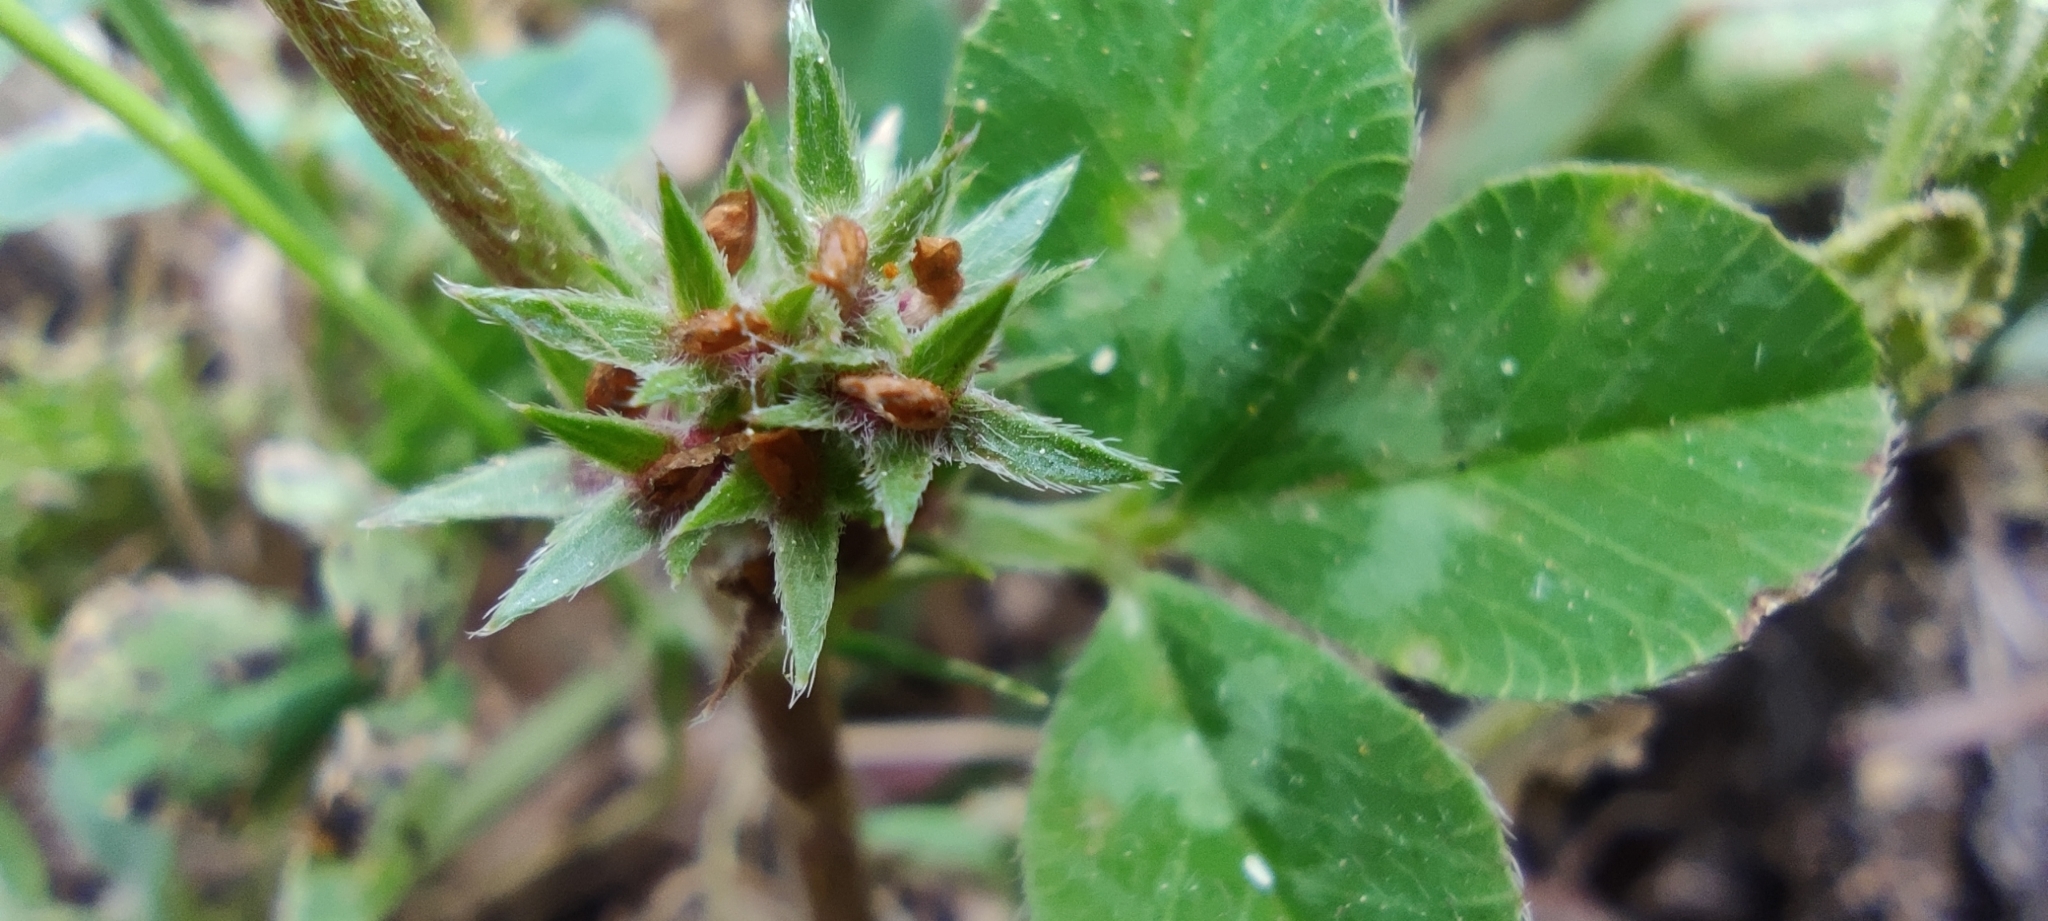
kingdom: Plantae
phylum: Tracheophyta
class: Magnoliopsida
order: Fabales
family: Fabaceae
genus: Trifolium
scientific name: Trifolium scabrum
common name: Rough clover
